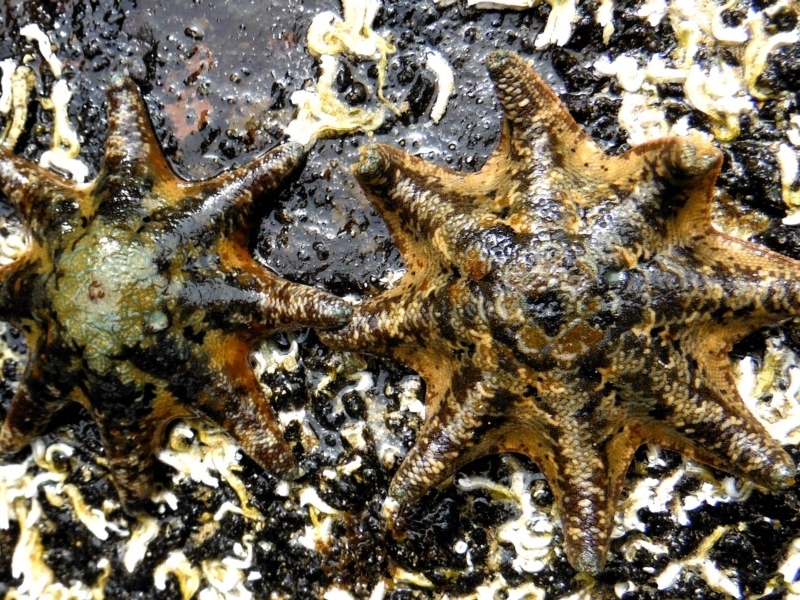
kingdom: Animalia
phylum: Echinodermata
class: Asteroidea
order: Valvatida
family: Asterinidae
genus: Meridiastra
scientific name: Meridiastra calcar
